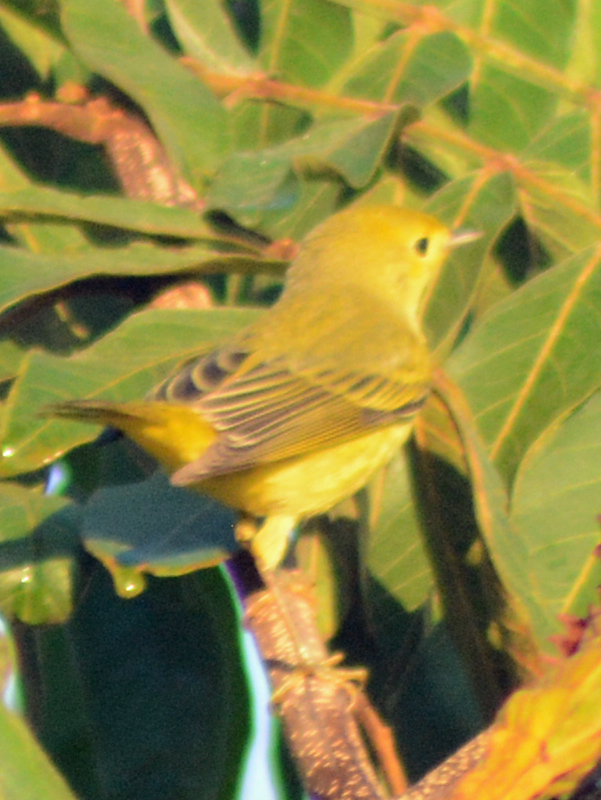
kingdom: Animalia
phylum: Chordata
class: Aves
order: Passeriformes
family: Parulidae
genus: Setophaga
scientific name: Setophaga petechia
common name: Yellow warbler
